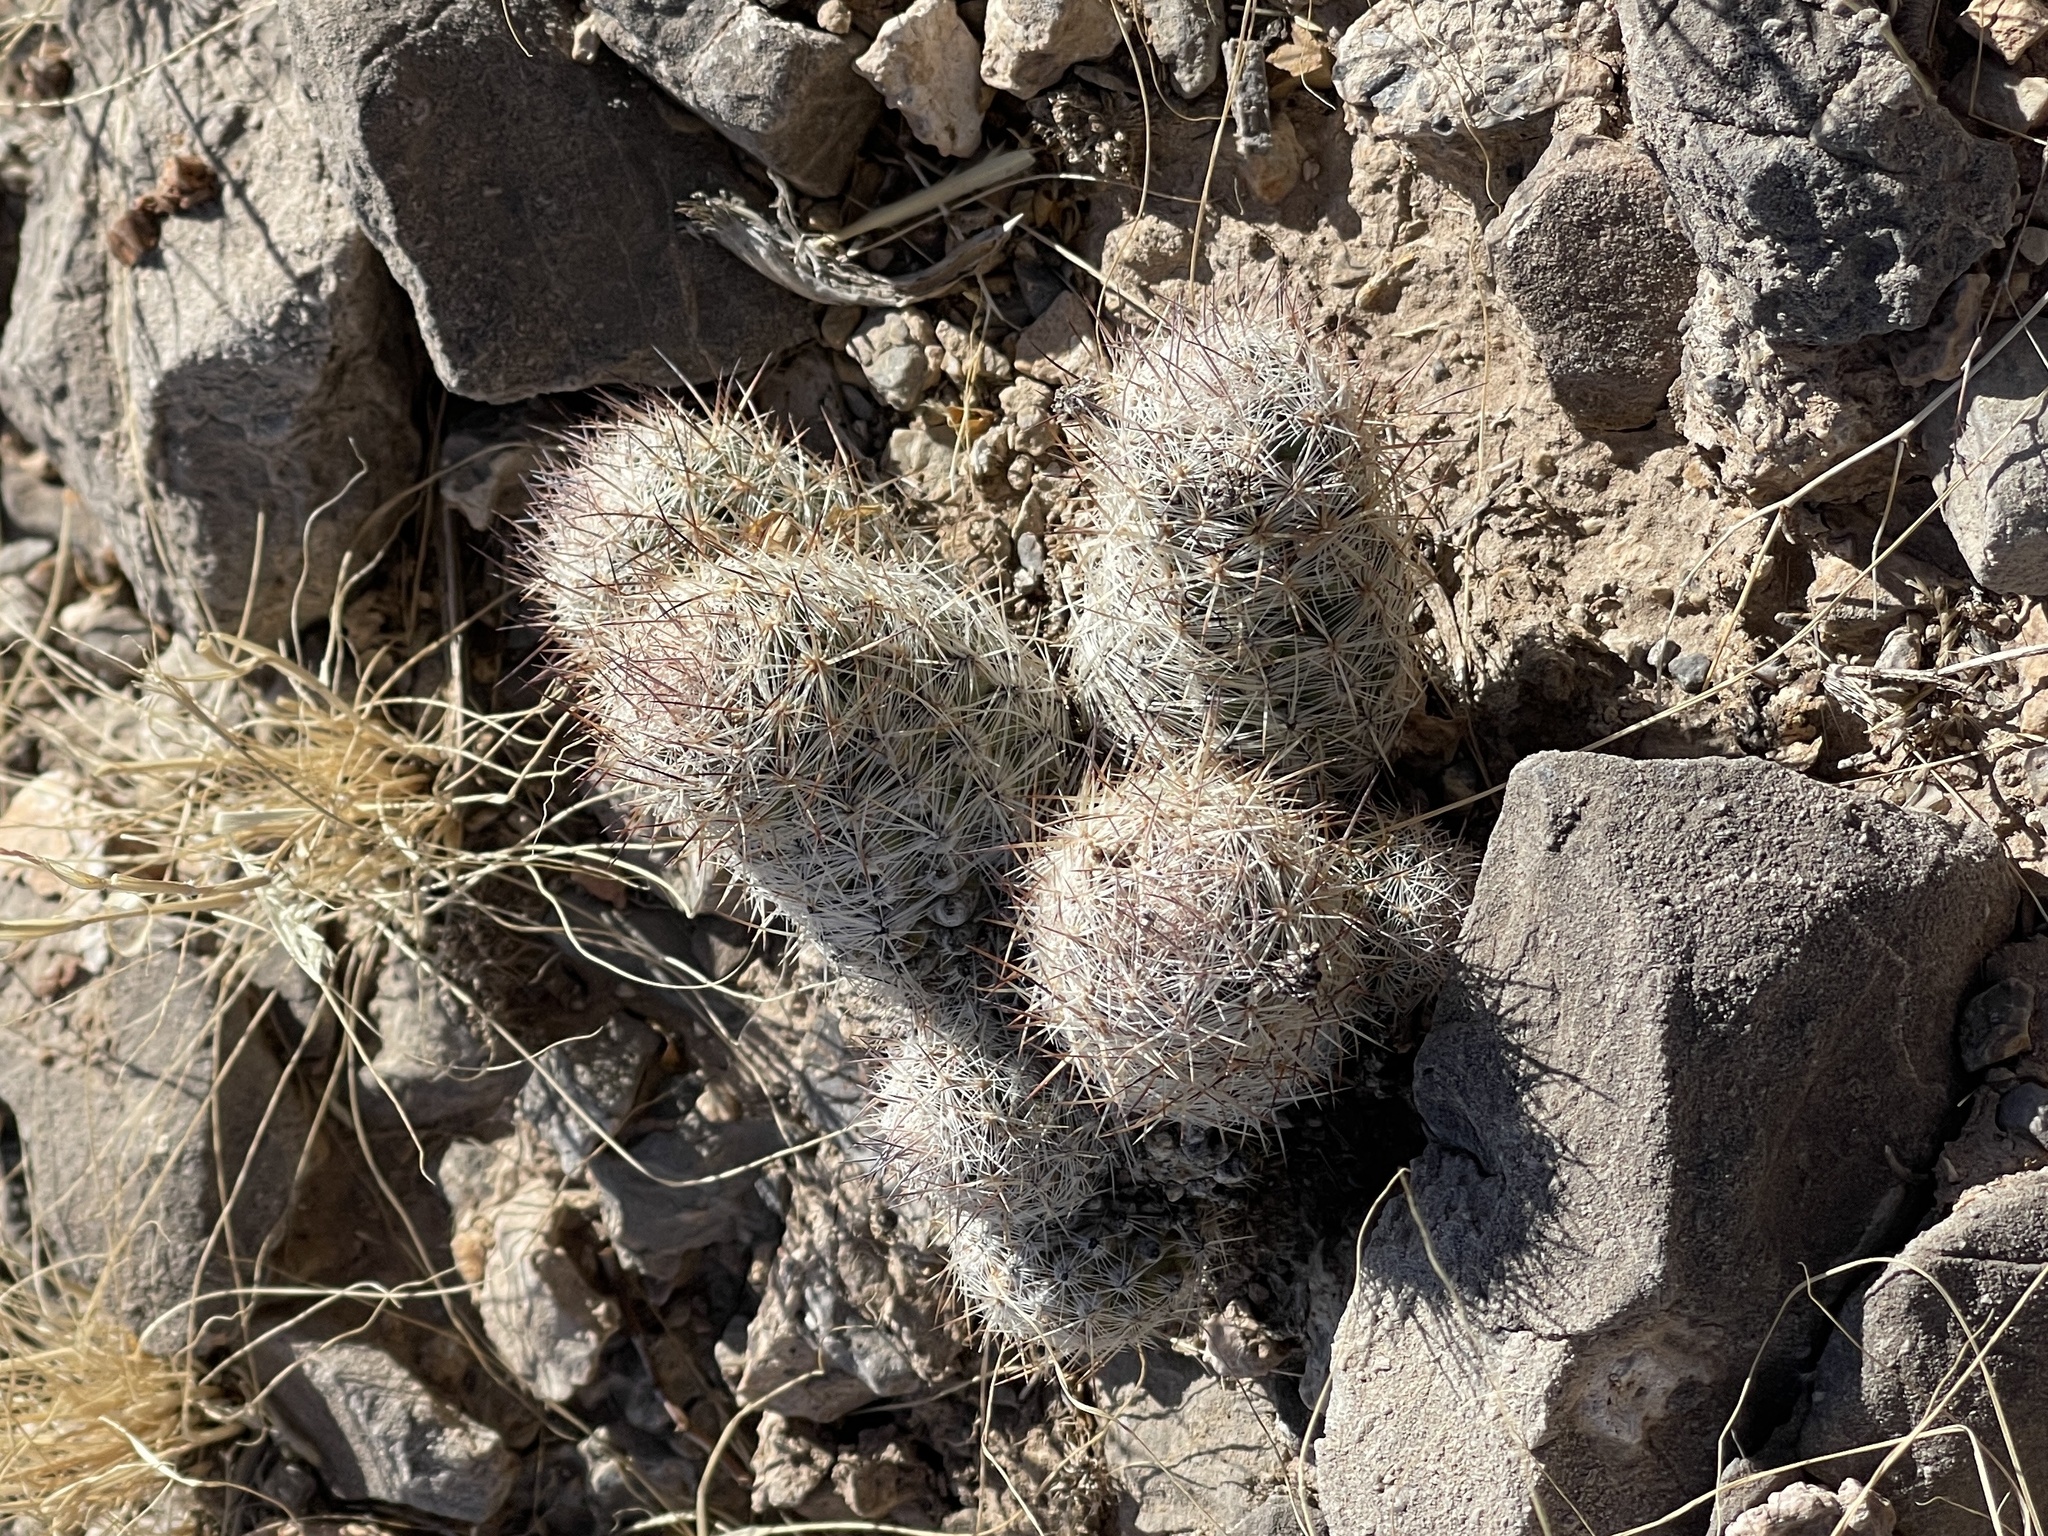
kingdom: Plantae
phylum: Tracheophyta
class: Magnoliopsida
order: Caryophyllales
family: Cactaceae
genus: Pelecyphora
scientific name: Pelecyphora tuberculosa
